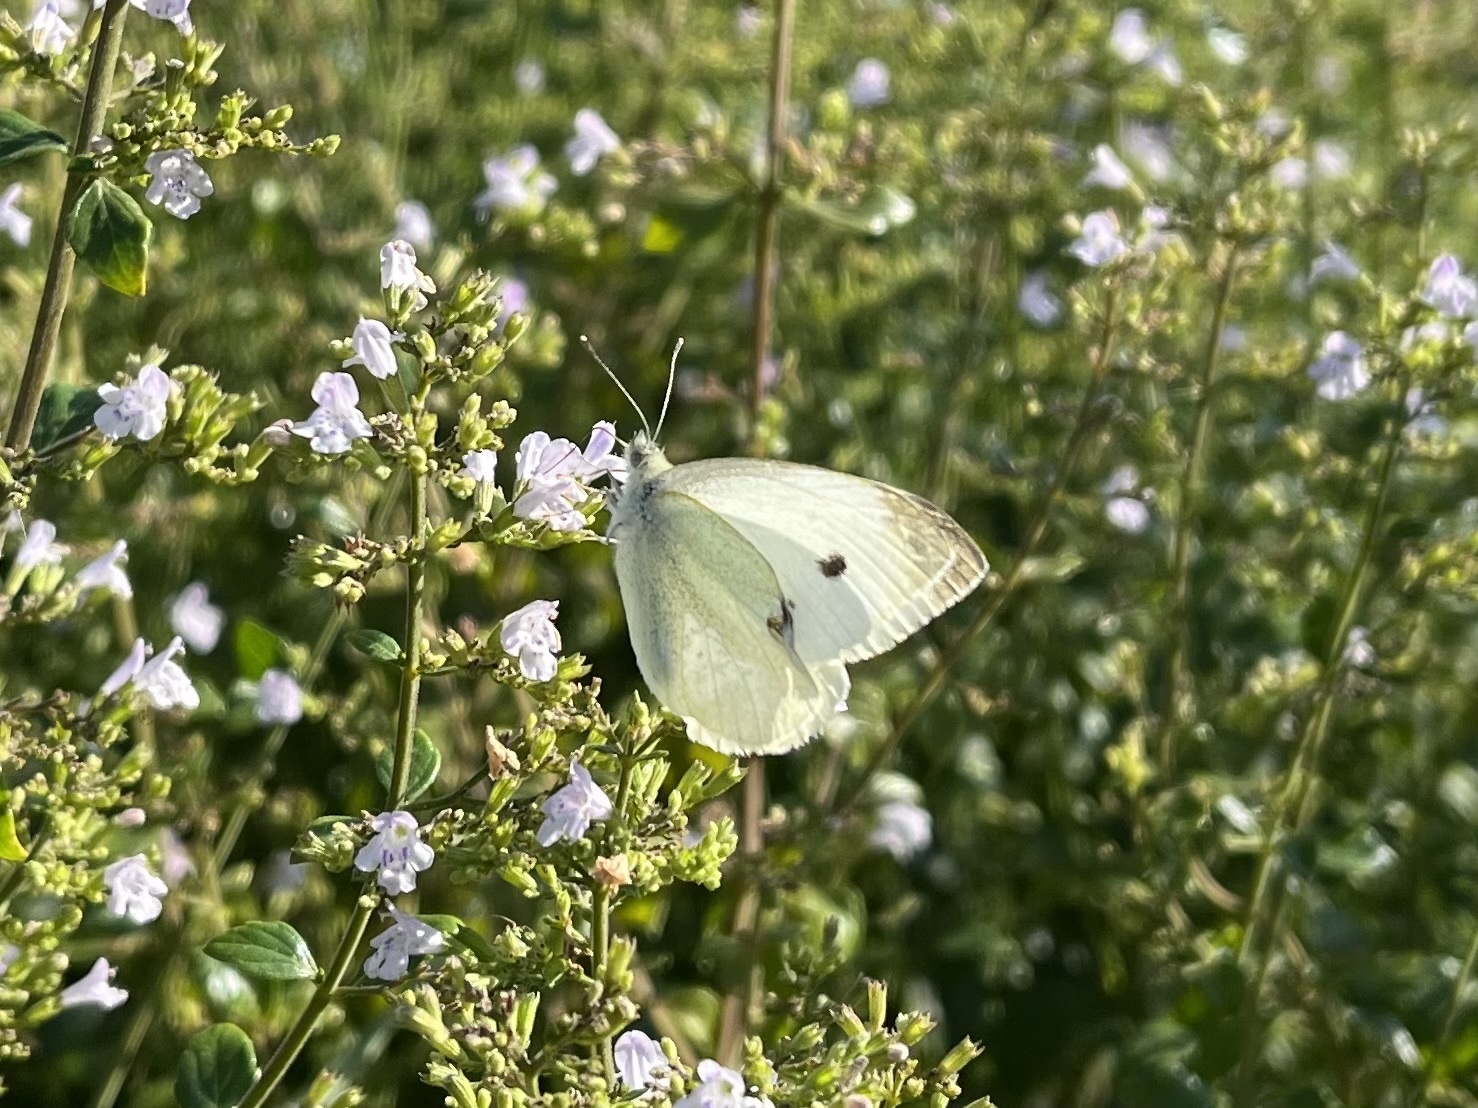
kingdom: Animalia
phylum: Arthropoda
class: Insecta
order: Lepidoptera
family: Pieridae
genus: Pieris
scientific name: Pieris rapae
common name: Small white
